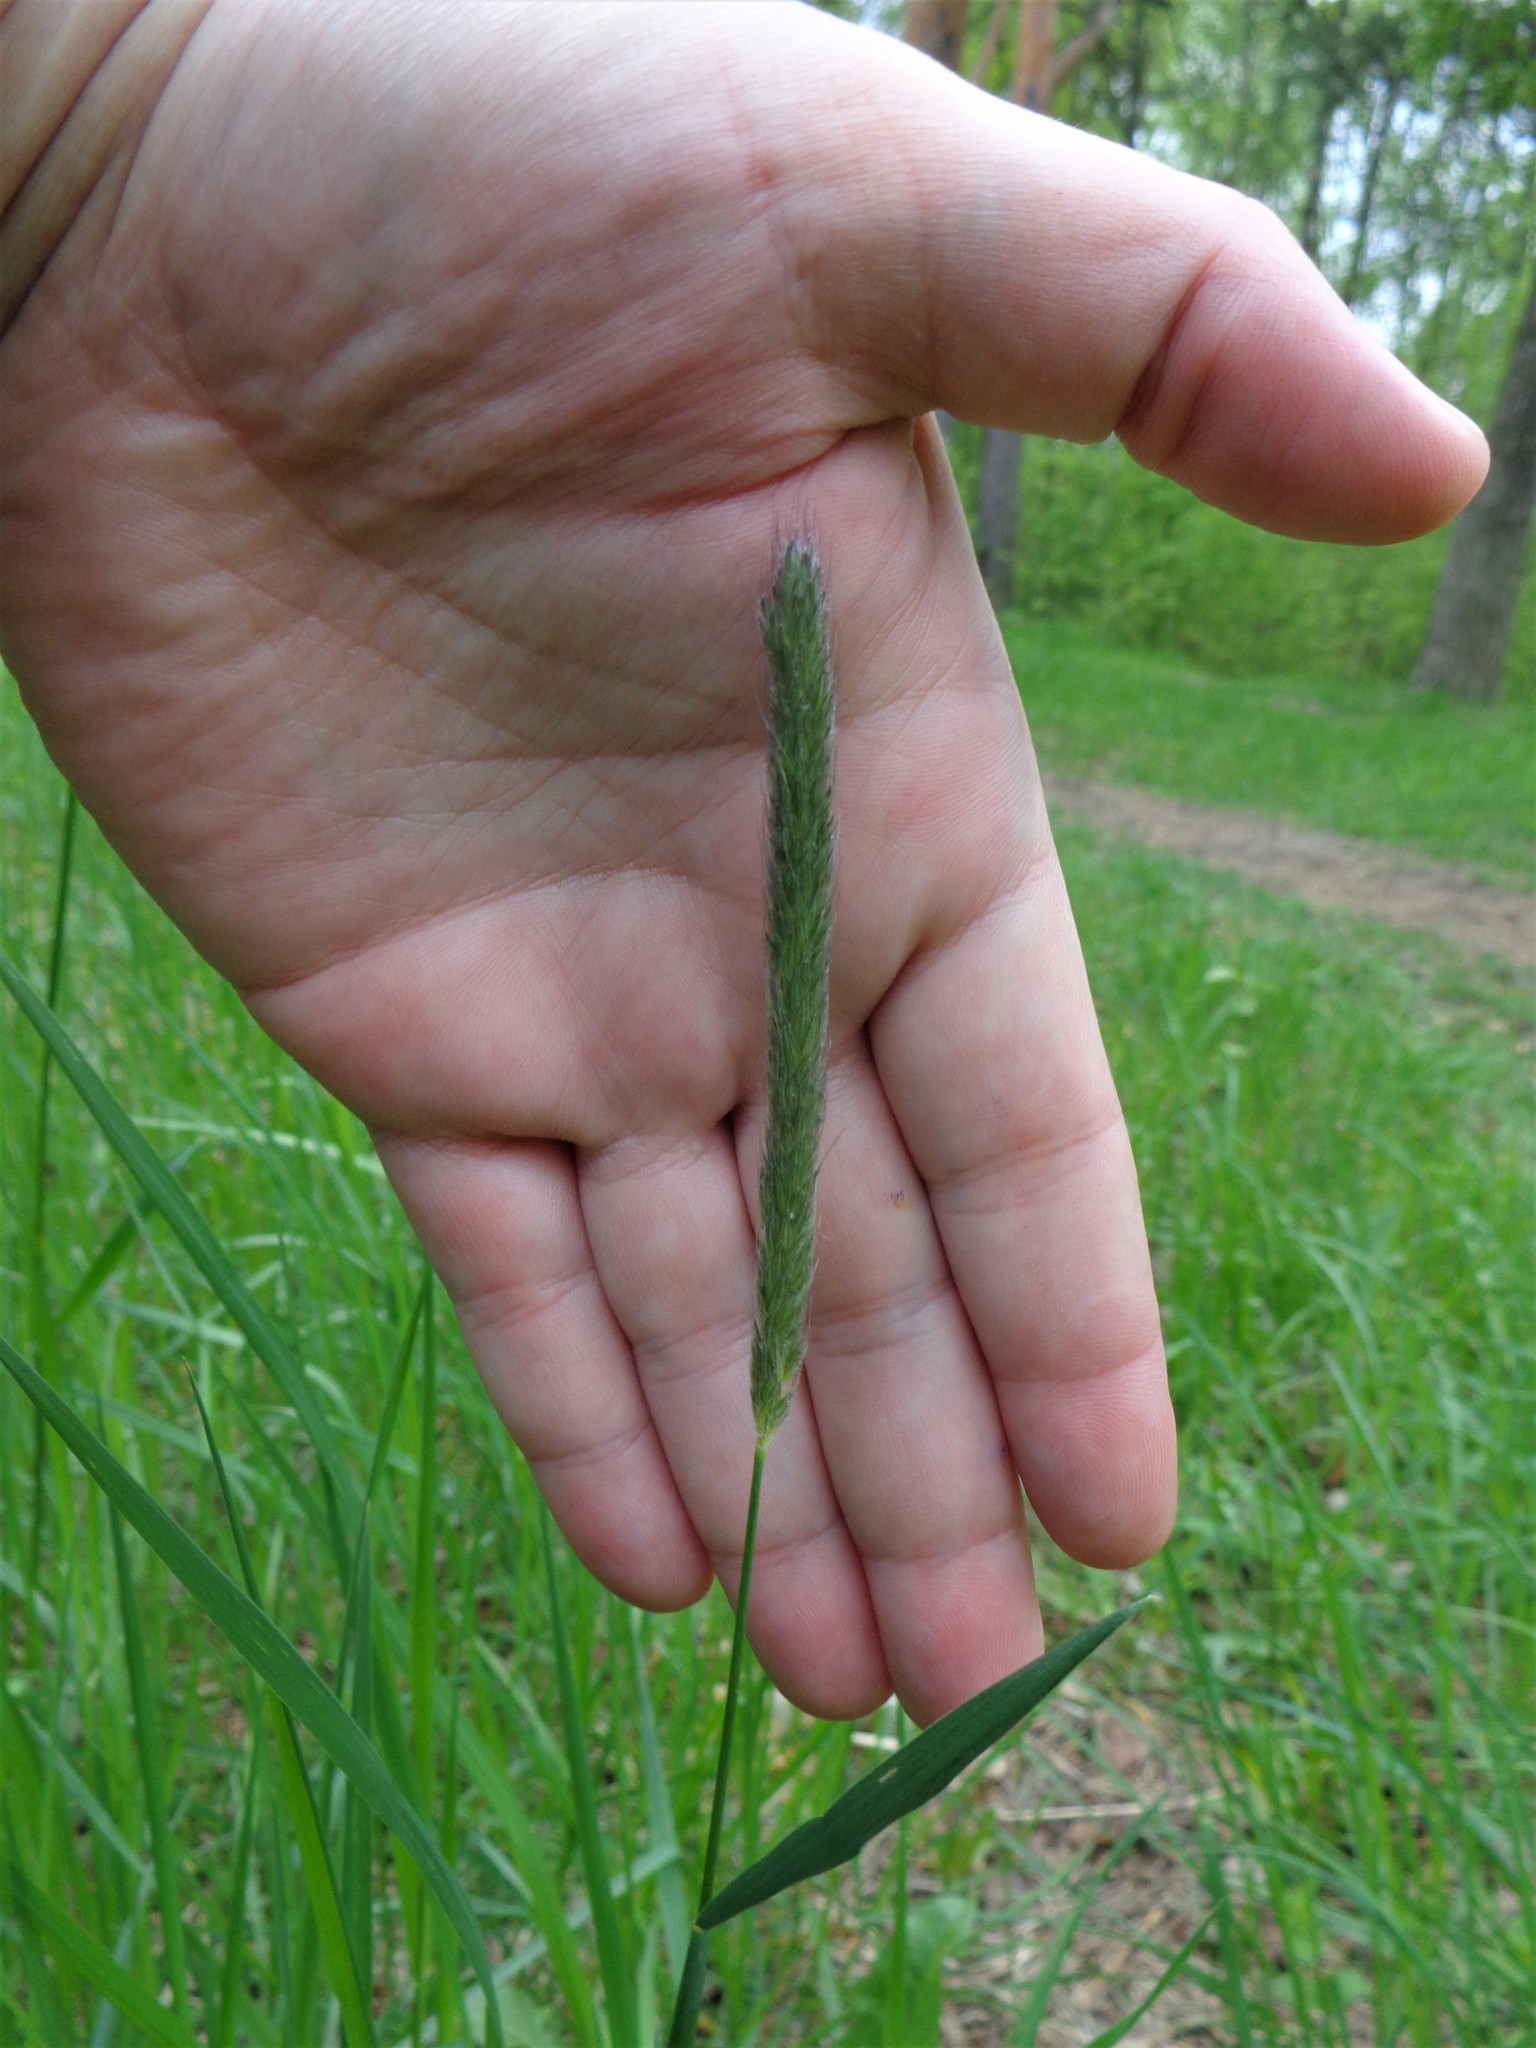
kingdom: Plantae
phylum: Tracheophyta
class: Liliopsida
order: Poales
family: Poaceae
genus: Alopecurus
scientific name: Alopecurus pratensis
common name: Meadow foxtail
